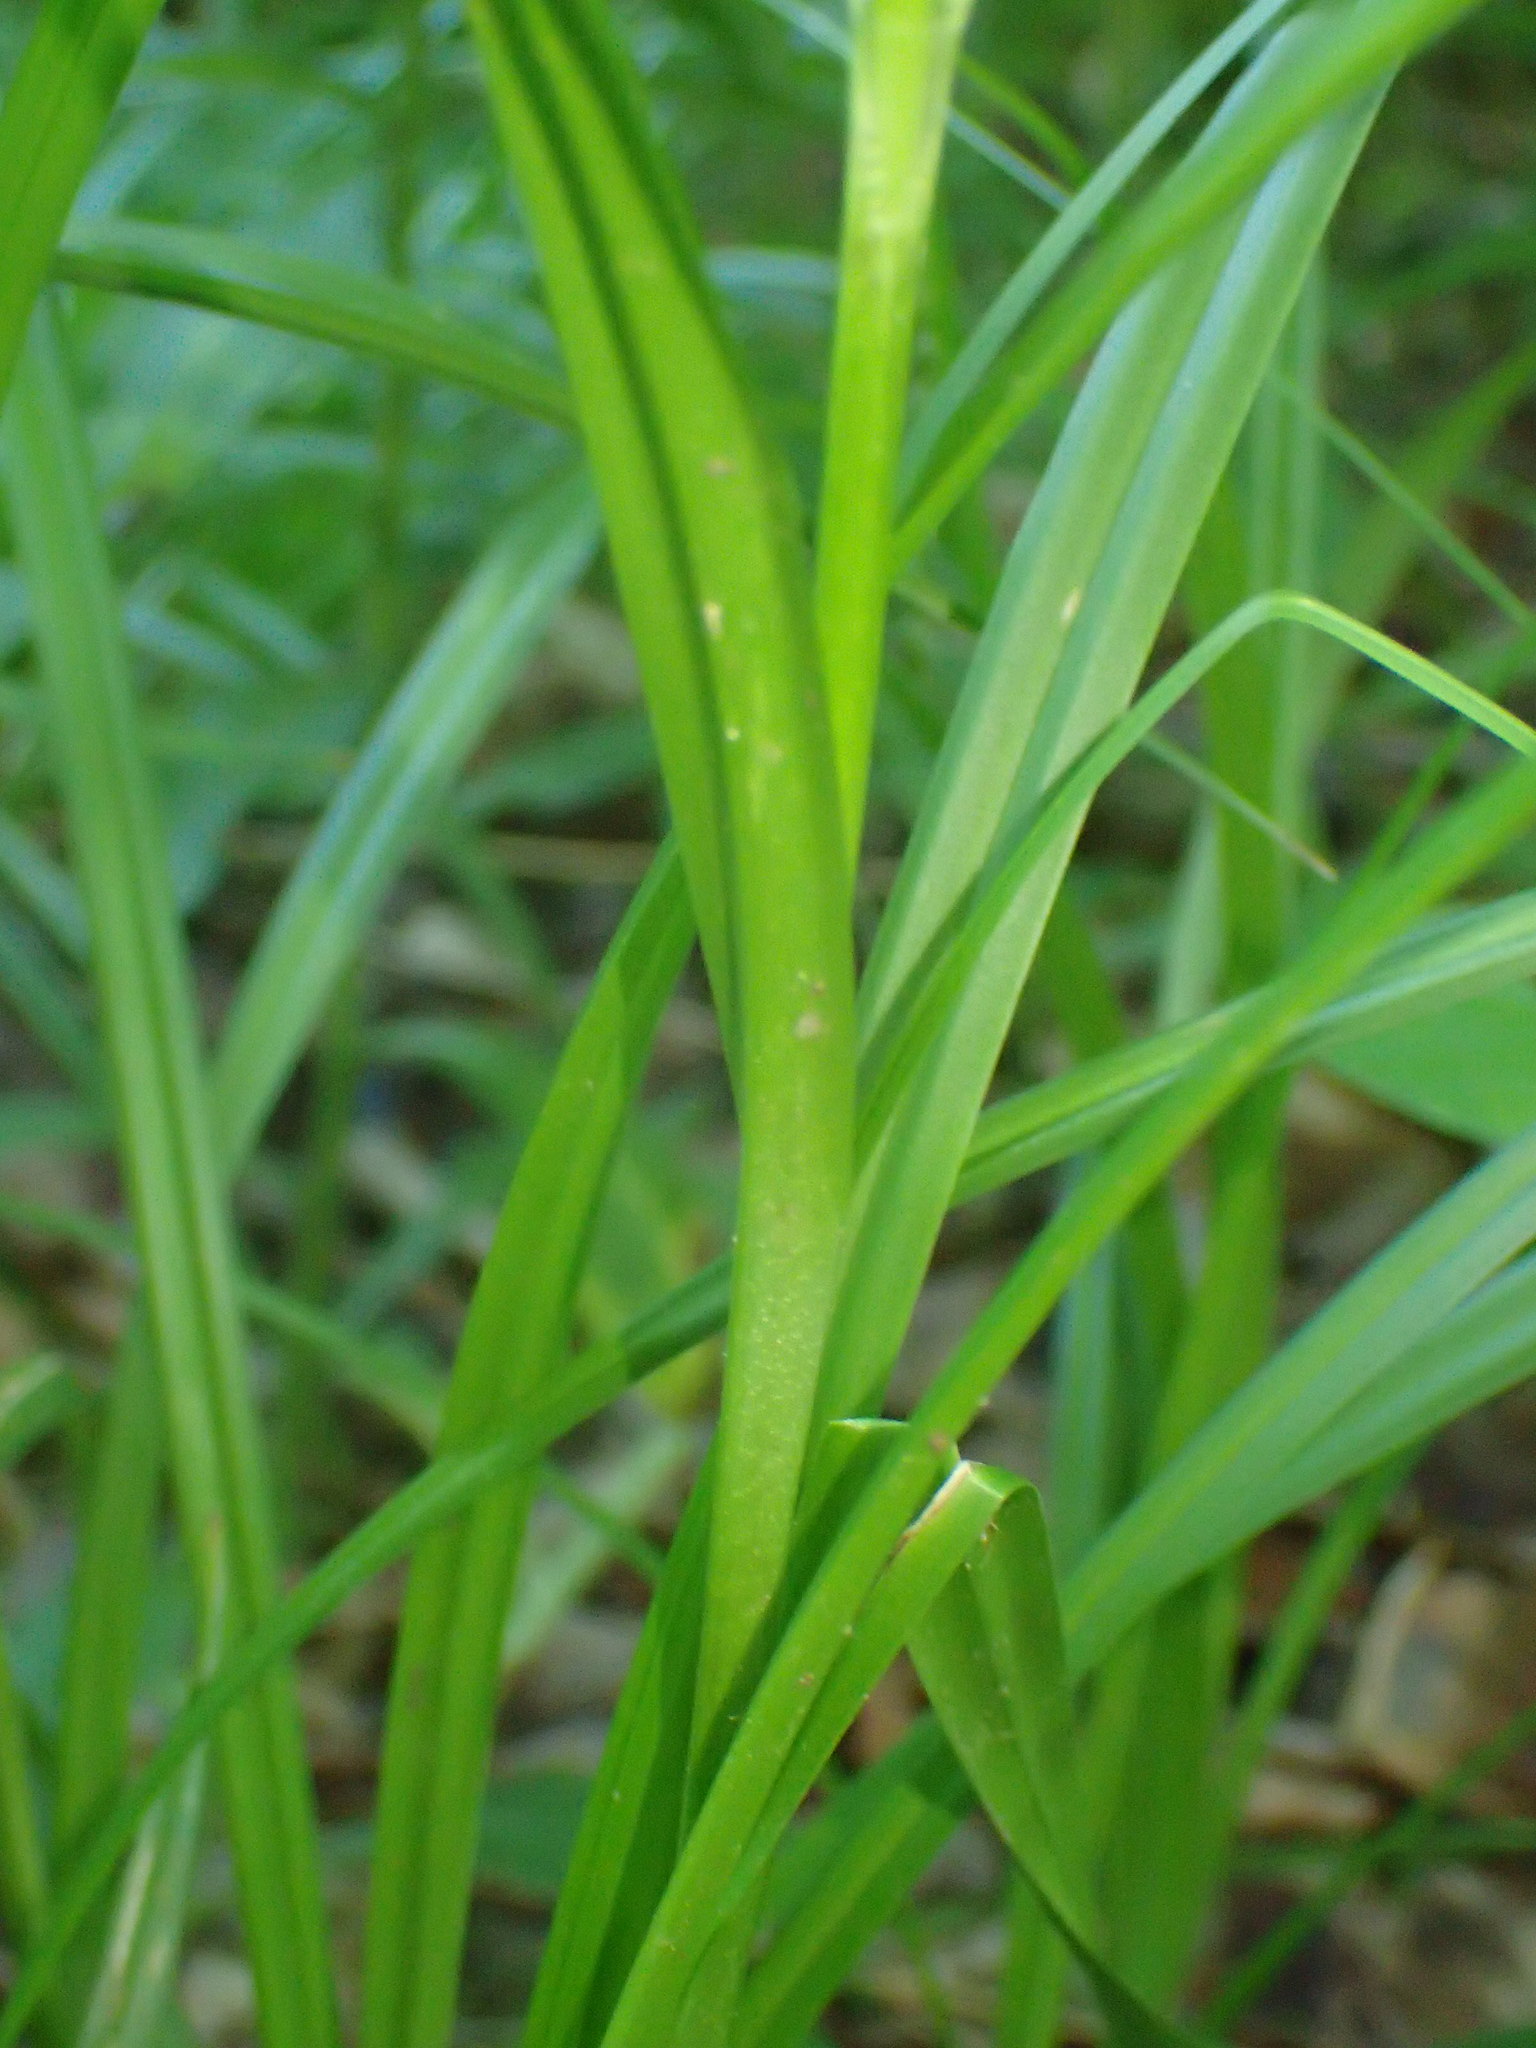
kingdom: Plantae
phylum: Tracheophyta
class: Liliopsida
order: Poales
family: Cyperaceae
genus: Scirpus
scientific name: Scirpus microcarpus
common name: Panicled bulrush
